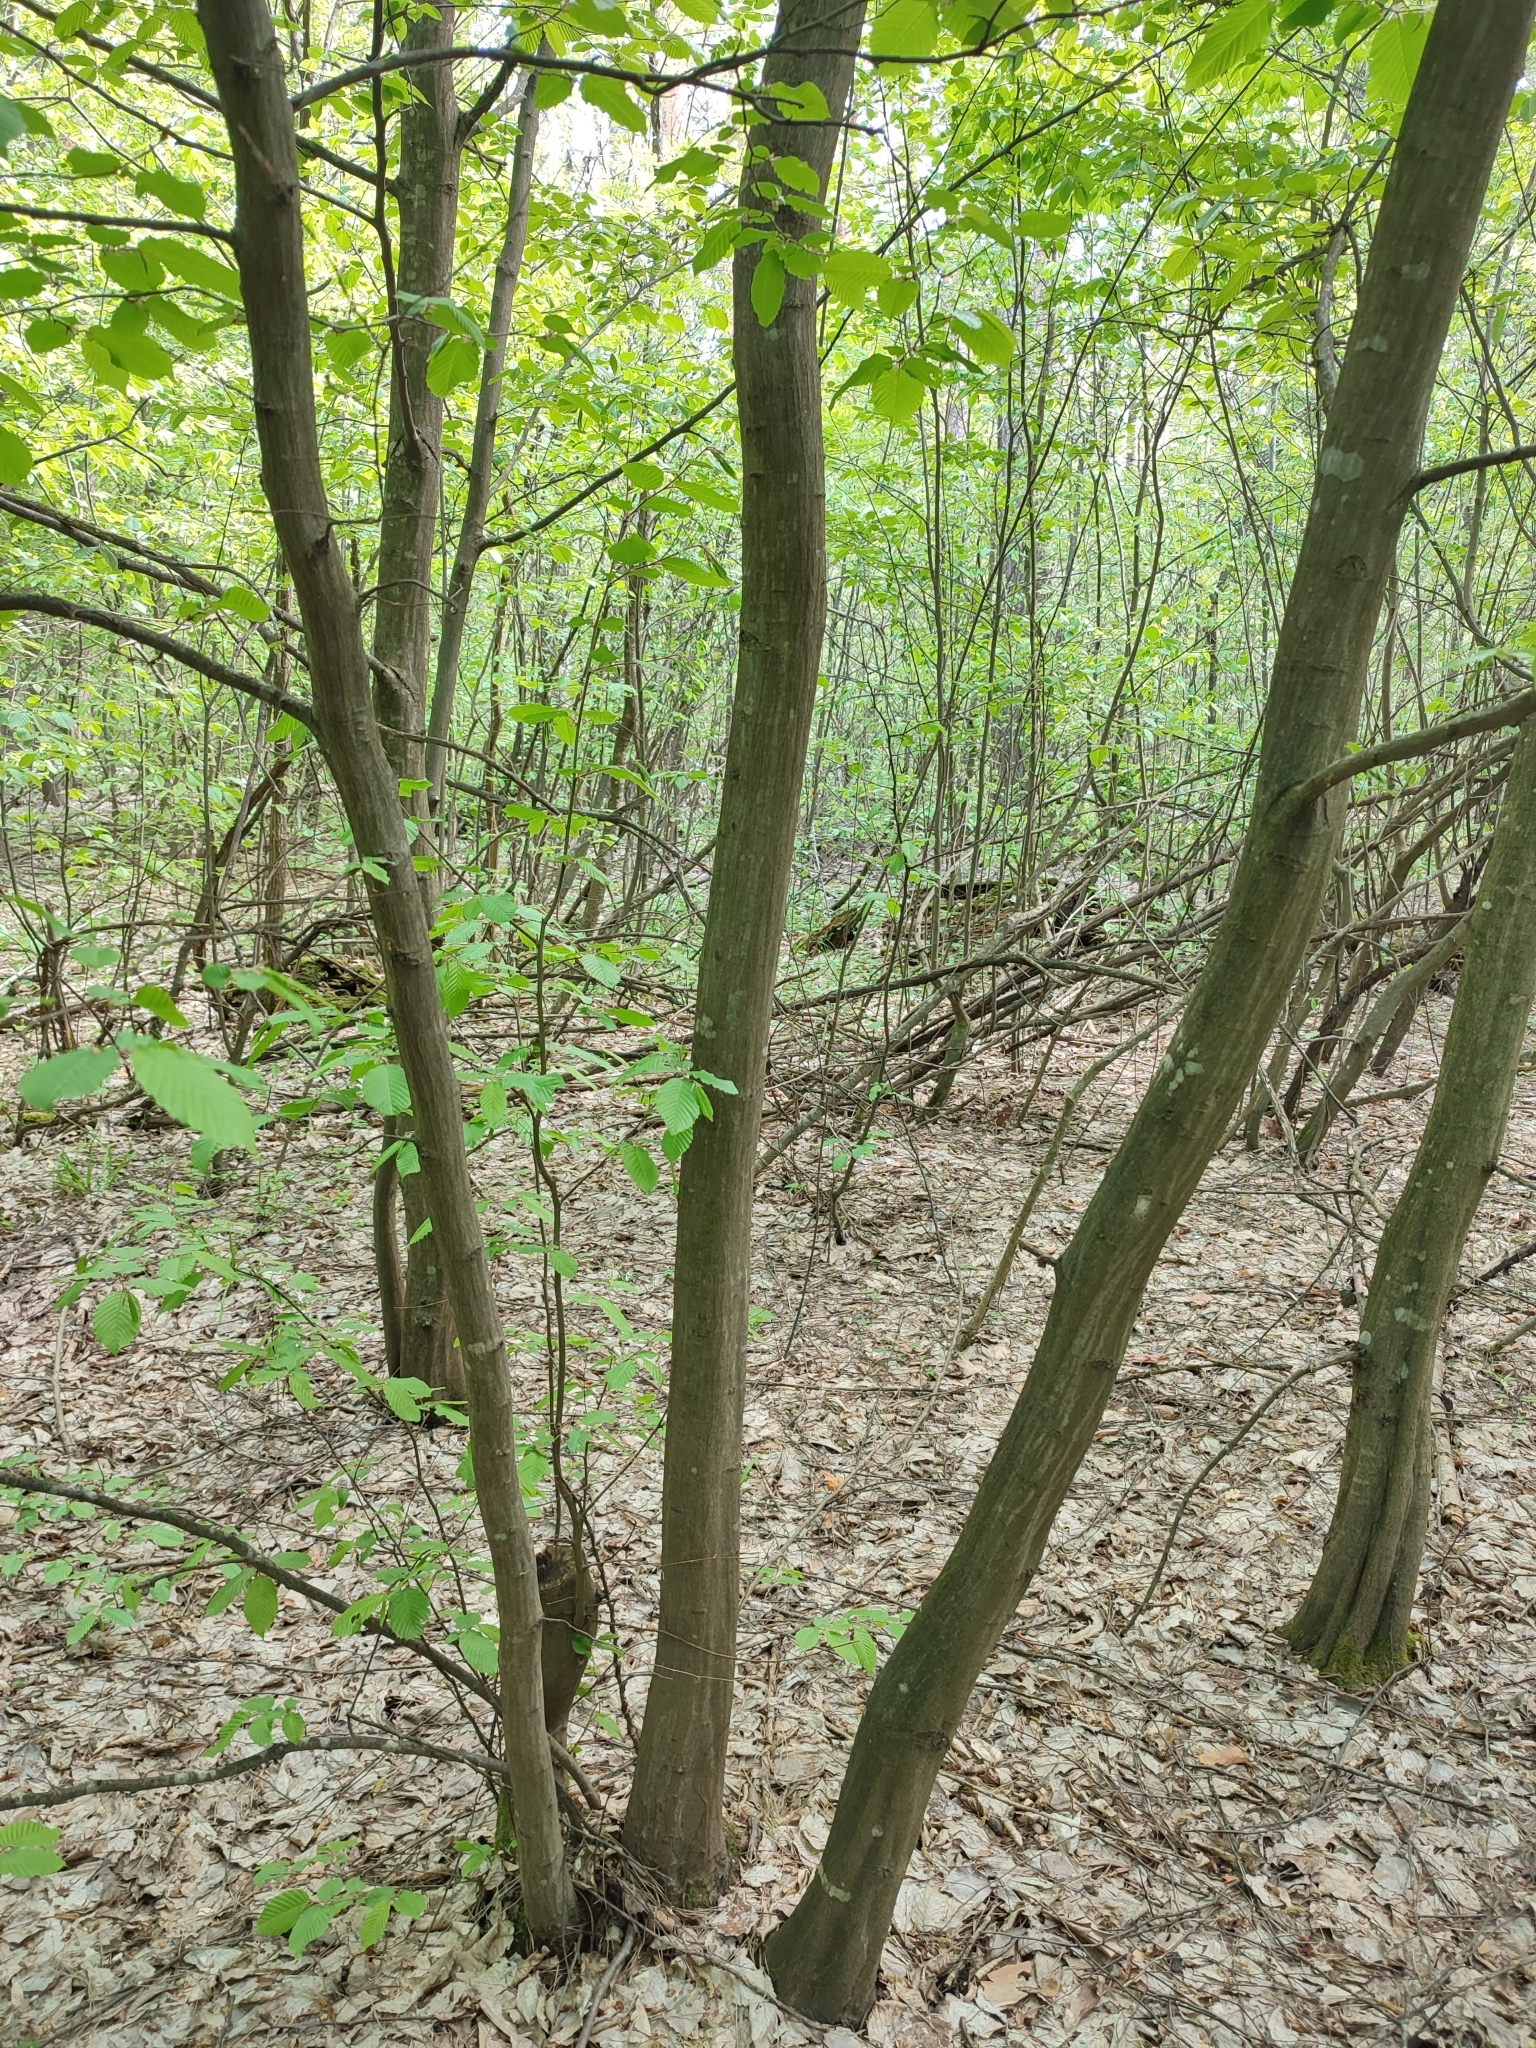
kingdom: Plantae
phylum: Tracheophyta
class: Magnoliopsida
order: Fagales
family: Betulaceae
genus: Carpinus
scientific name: Carpinus betulus
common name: Hornbeam
